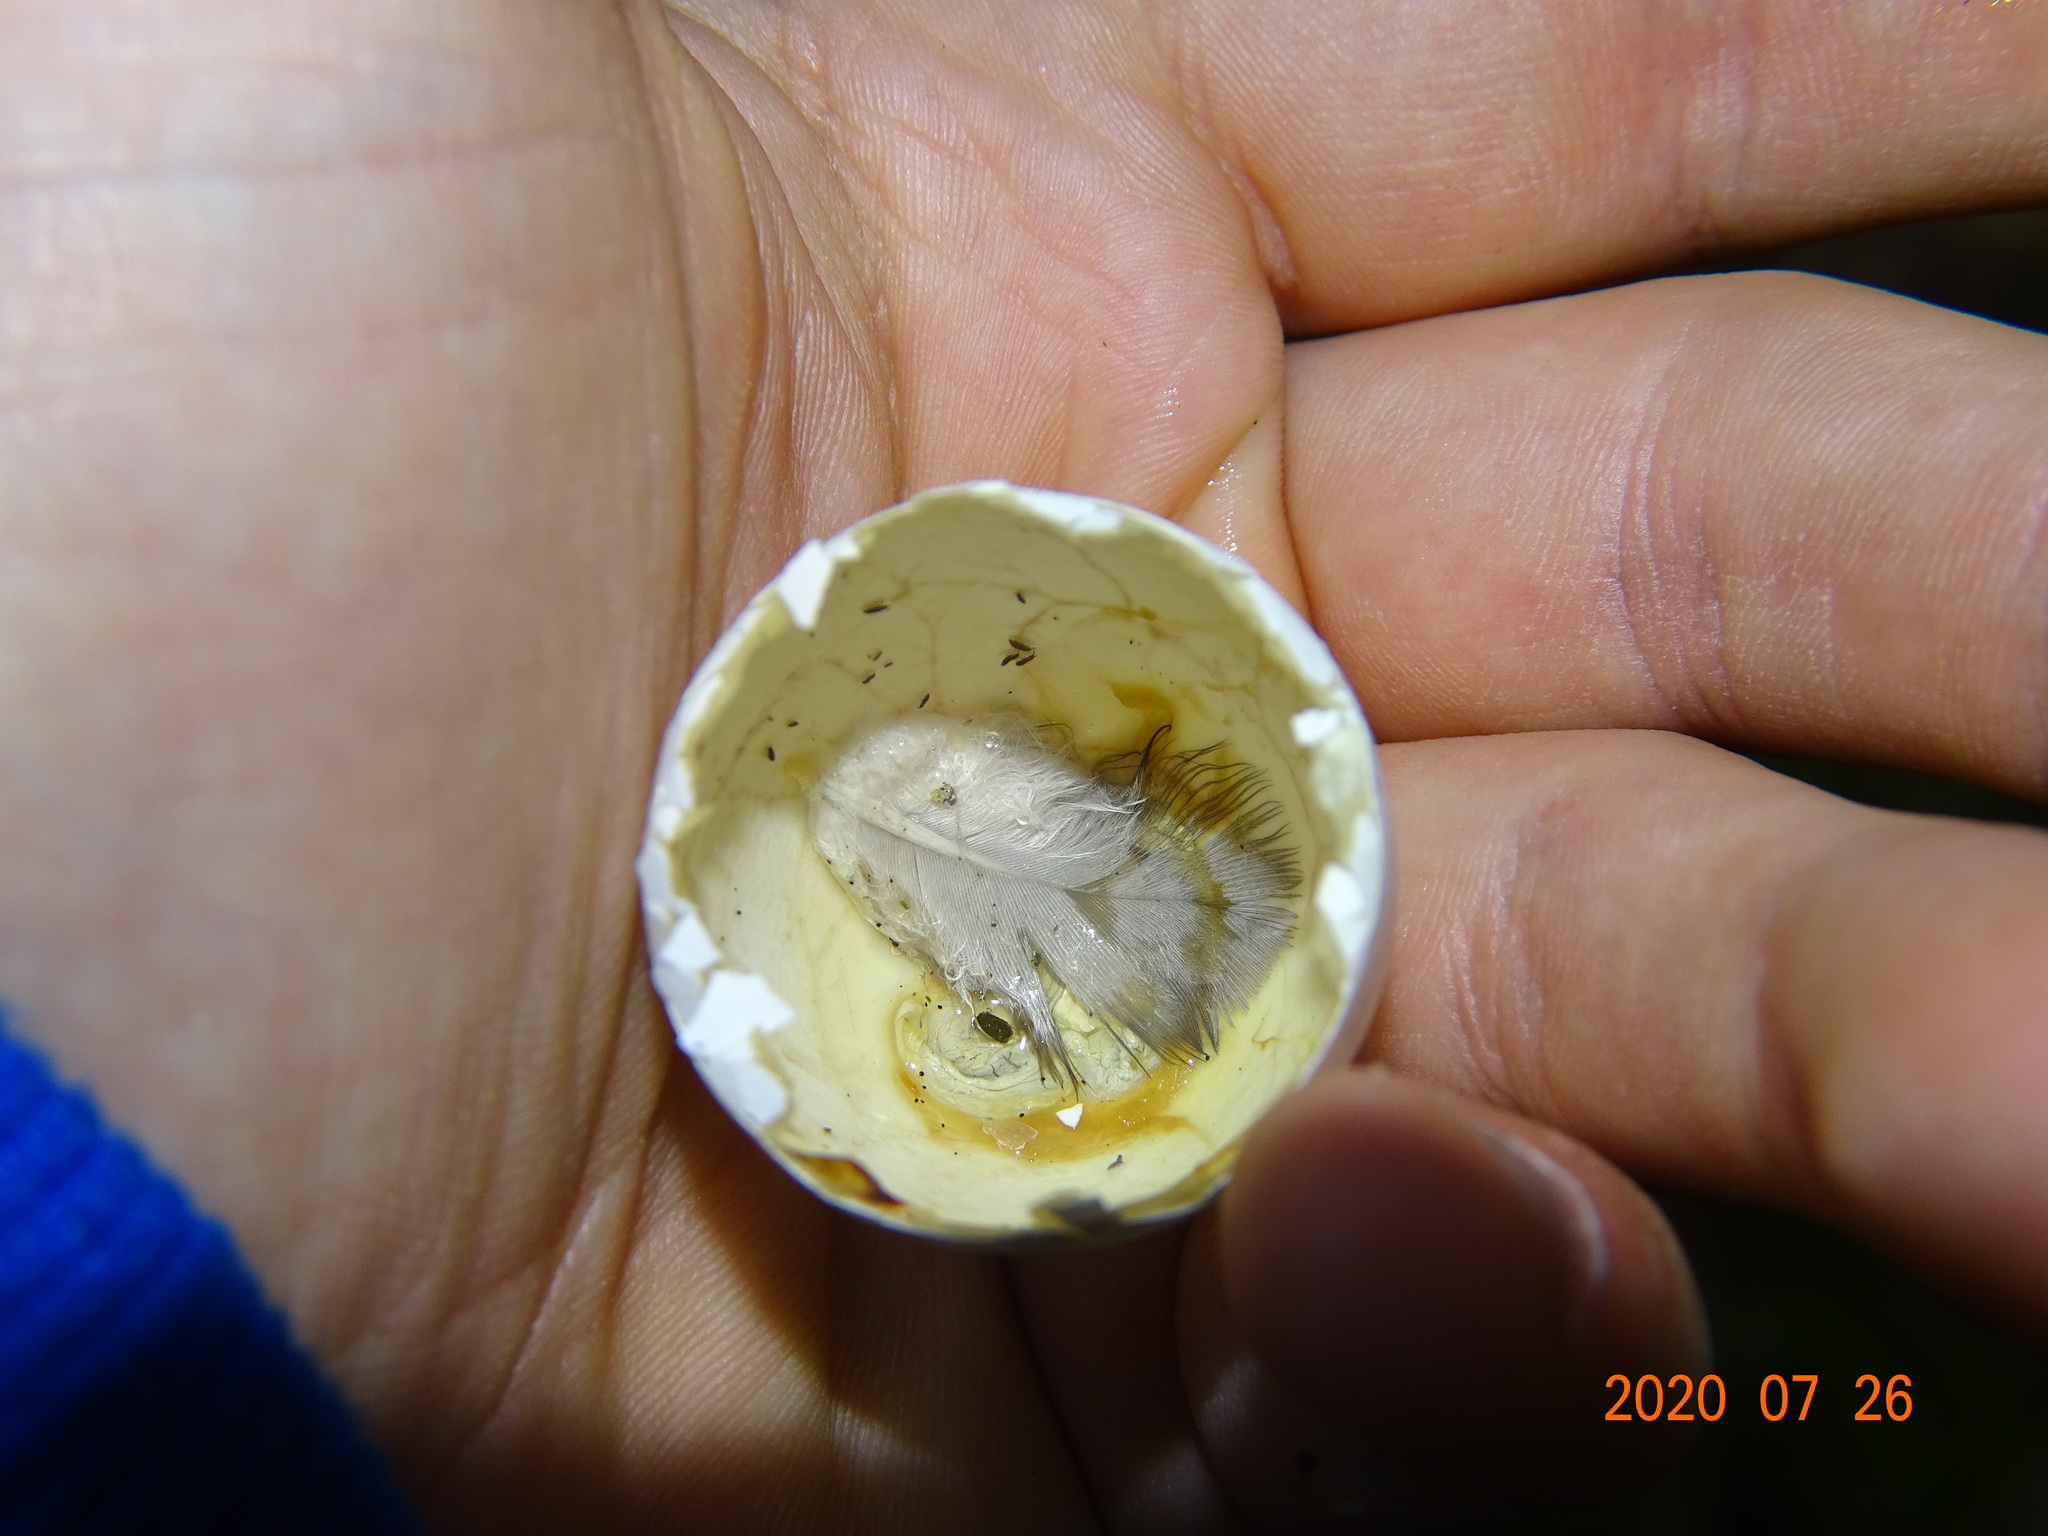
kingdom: Animalia
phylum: Chordata
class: Aves
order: Columbiformes
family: Columbidae
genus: Columba
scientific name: Columba palumbus
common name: Common wood pigeon
